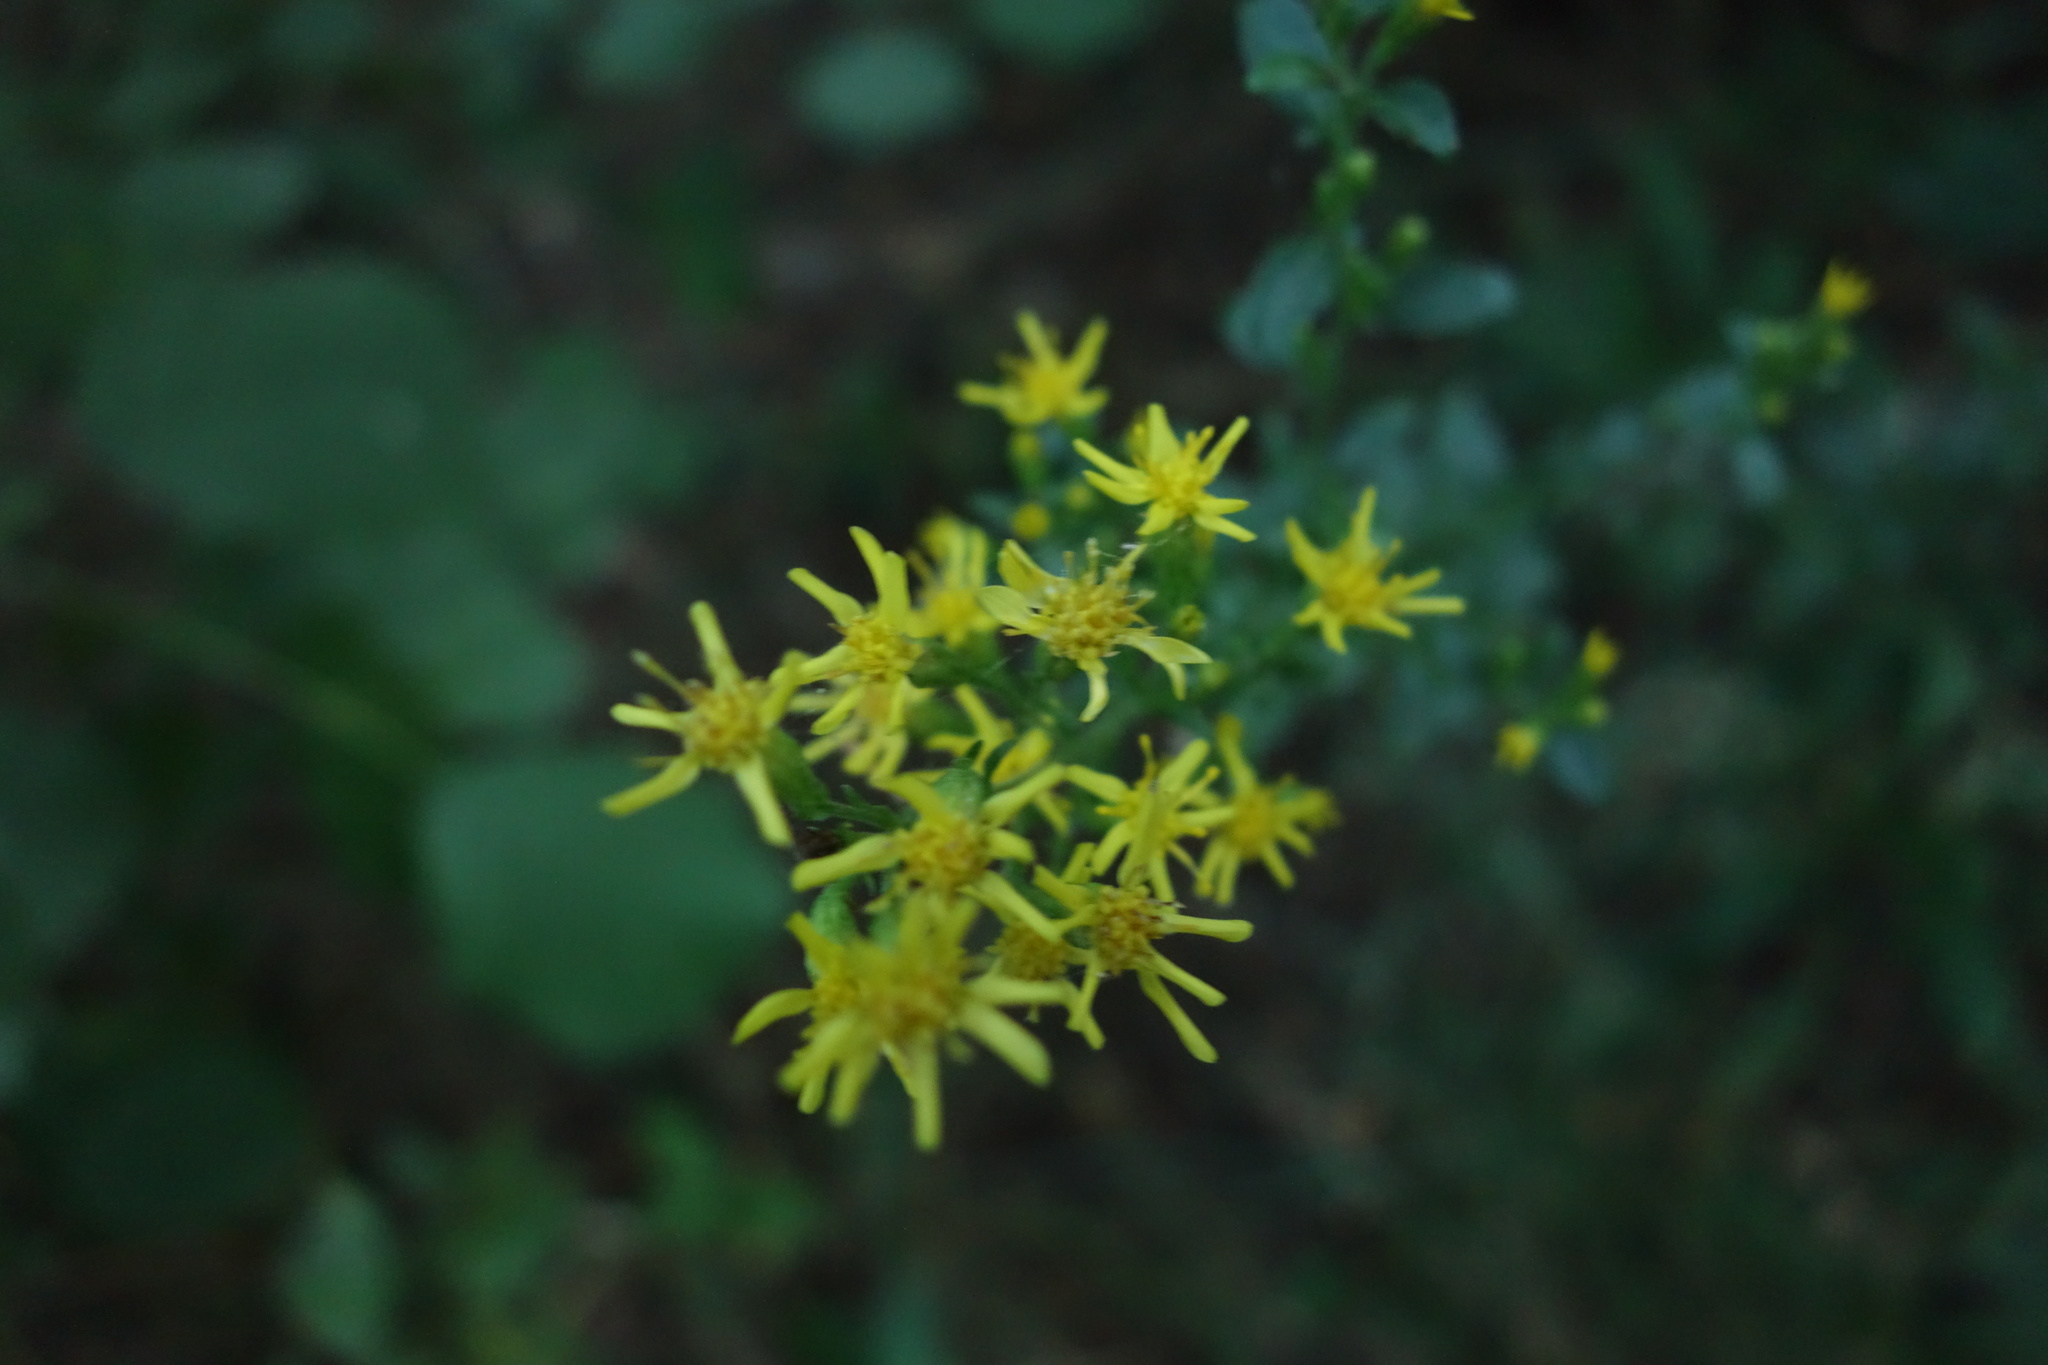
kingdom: Plantae
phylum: Tracheophyta
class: Magnoliopsida
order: Asterales
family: Asteraceae
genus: Solidago
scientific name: Solidago virgaurea
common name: Goldenrod
